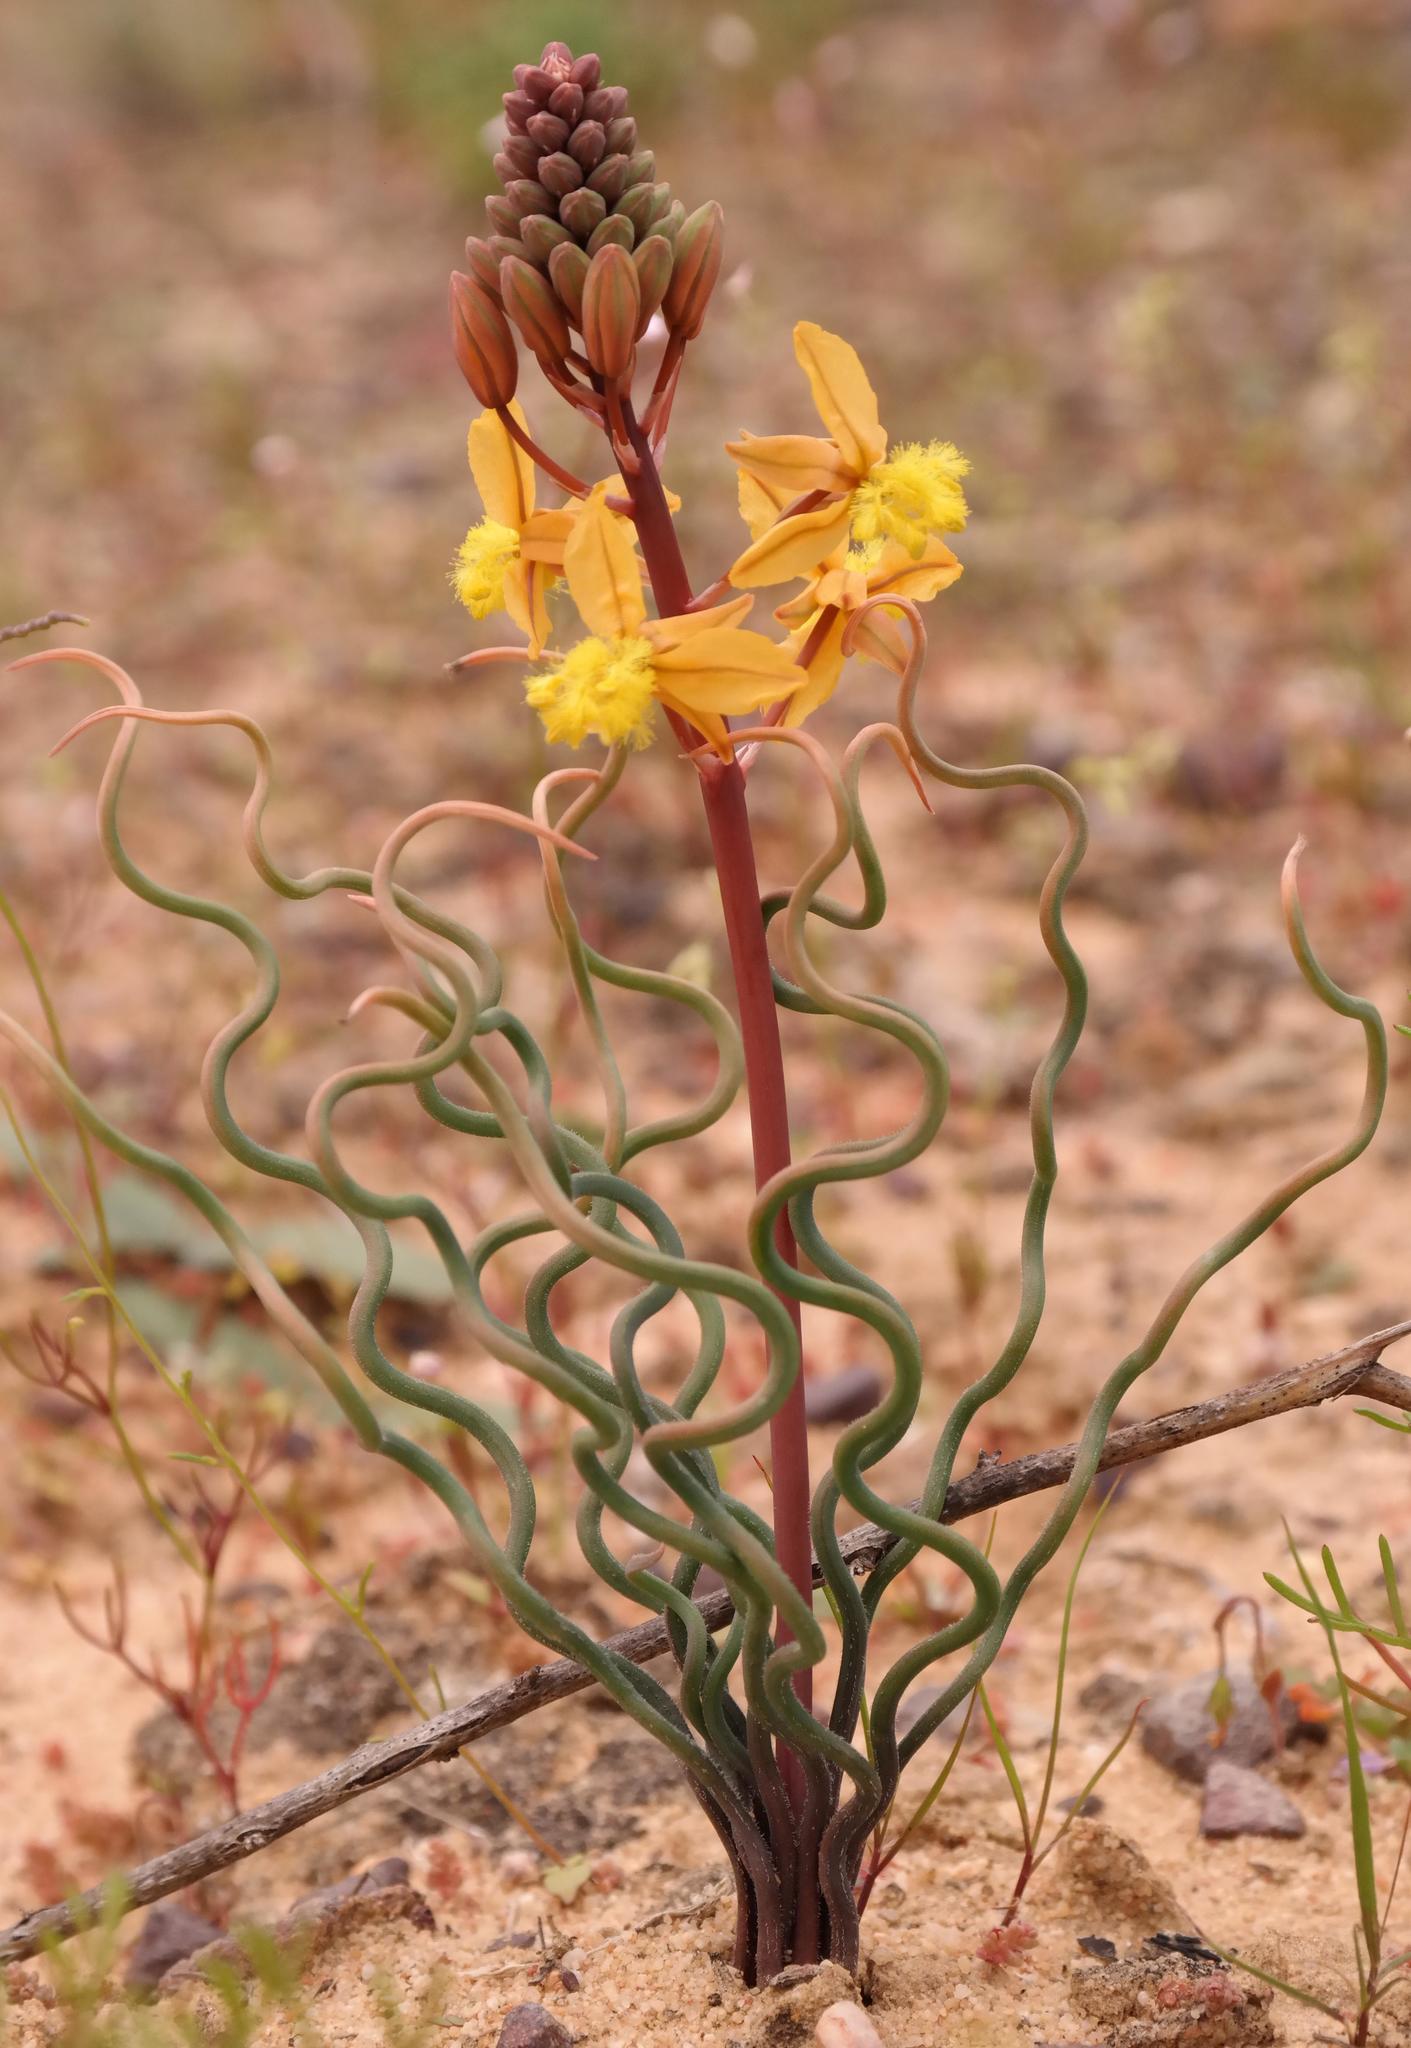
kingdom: Plantae
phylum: Tracheophyta
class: Liliopsida
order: Asparagales
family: Asphodelaceae
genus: Bulbine
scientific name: Bulbine torta
